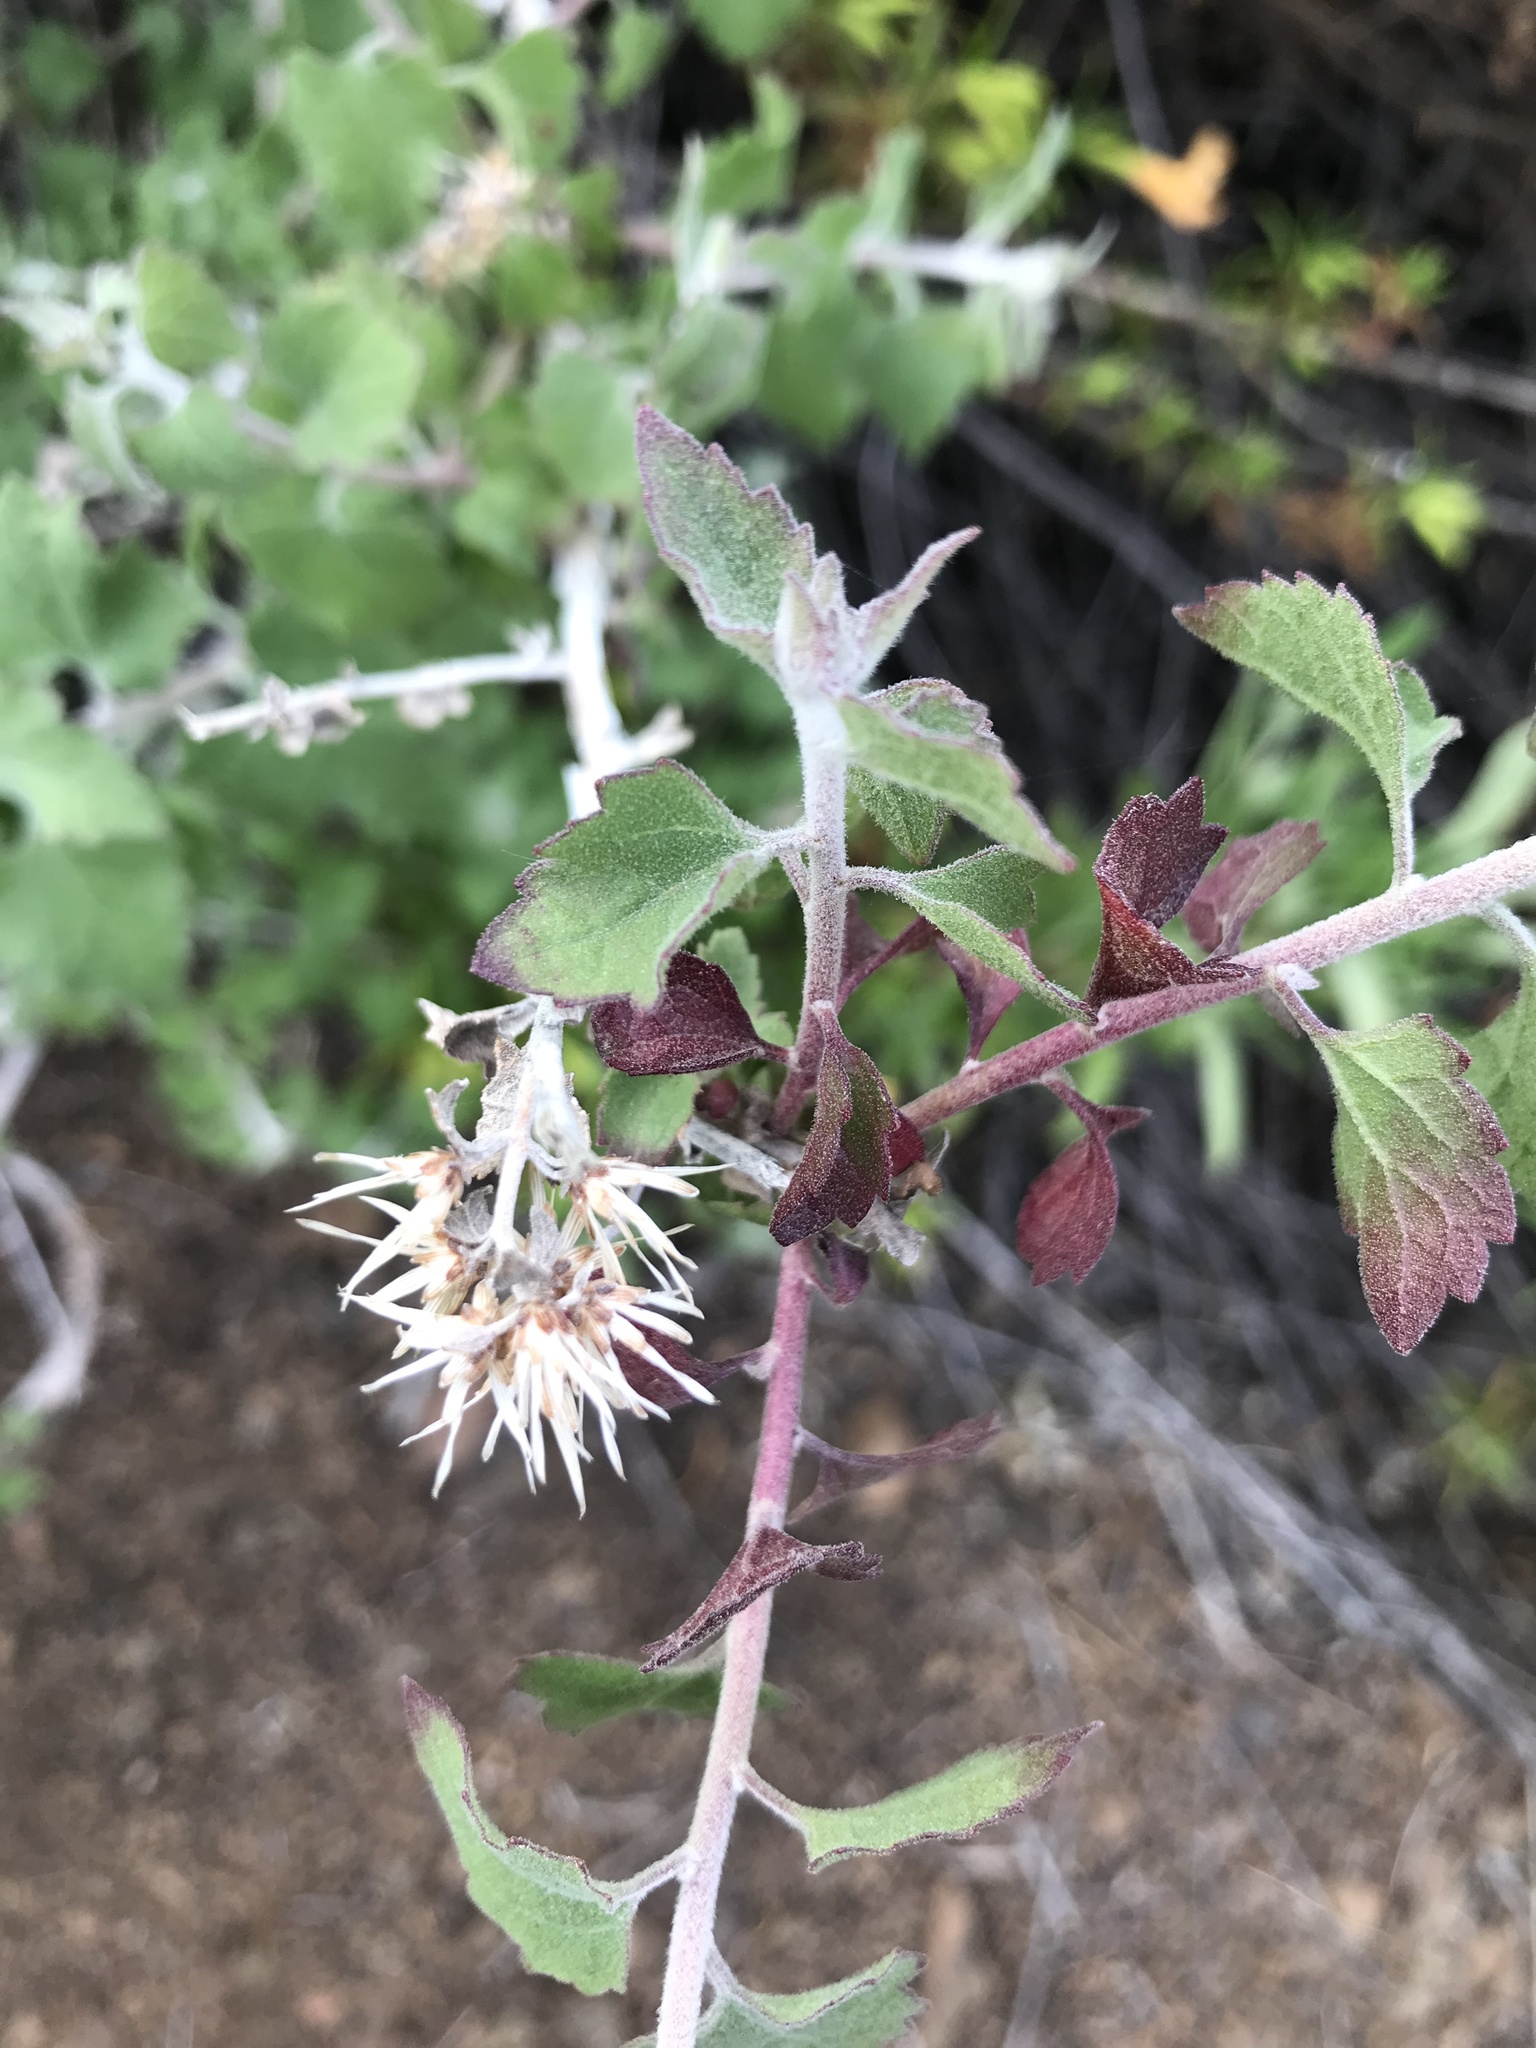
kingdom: Plantae
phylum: Tracheophyta
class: Magnoliopsida
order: Asterales
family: Asteraceae
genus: Brickellia
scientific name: Brickellia californica
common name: California brickellbush
